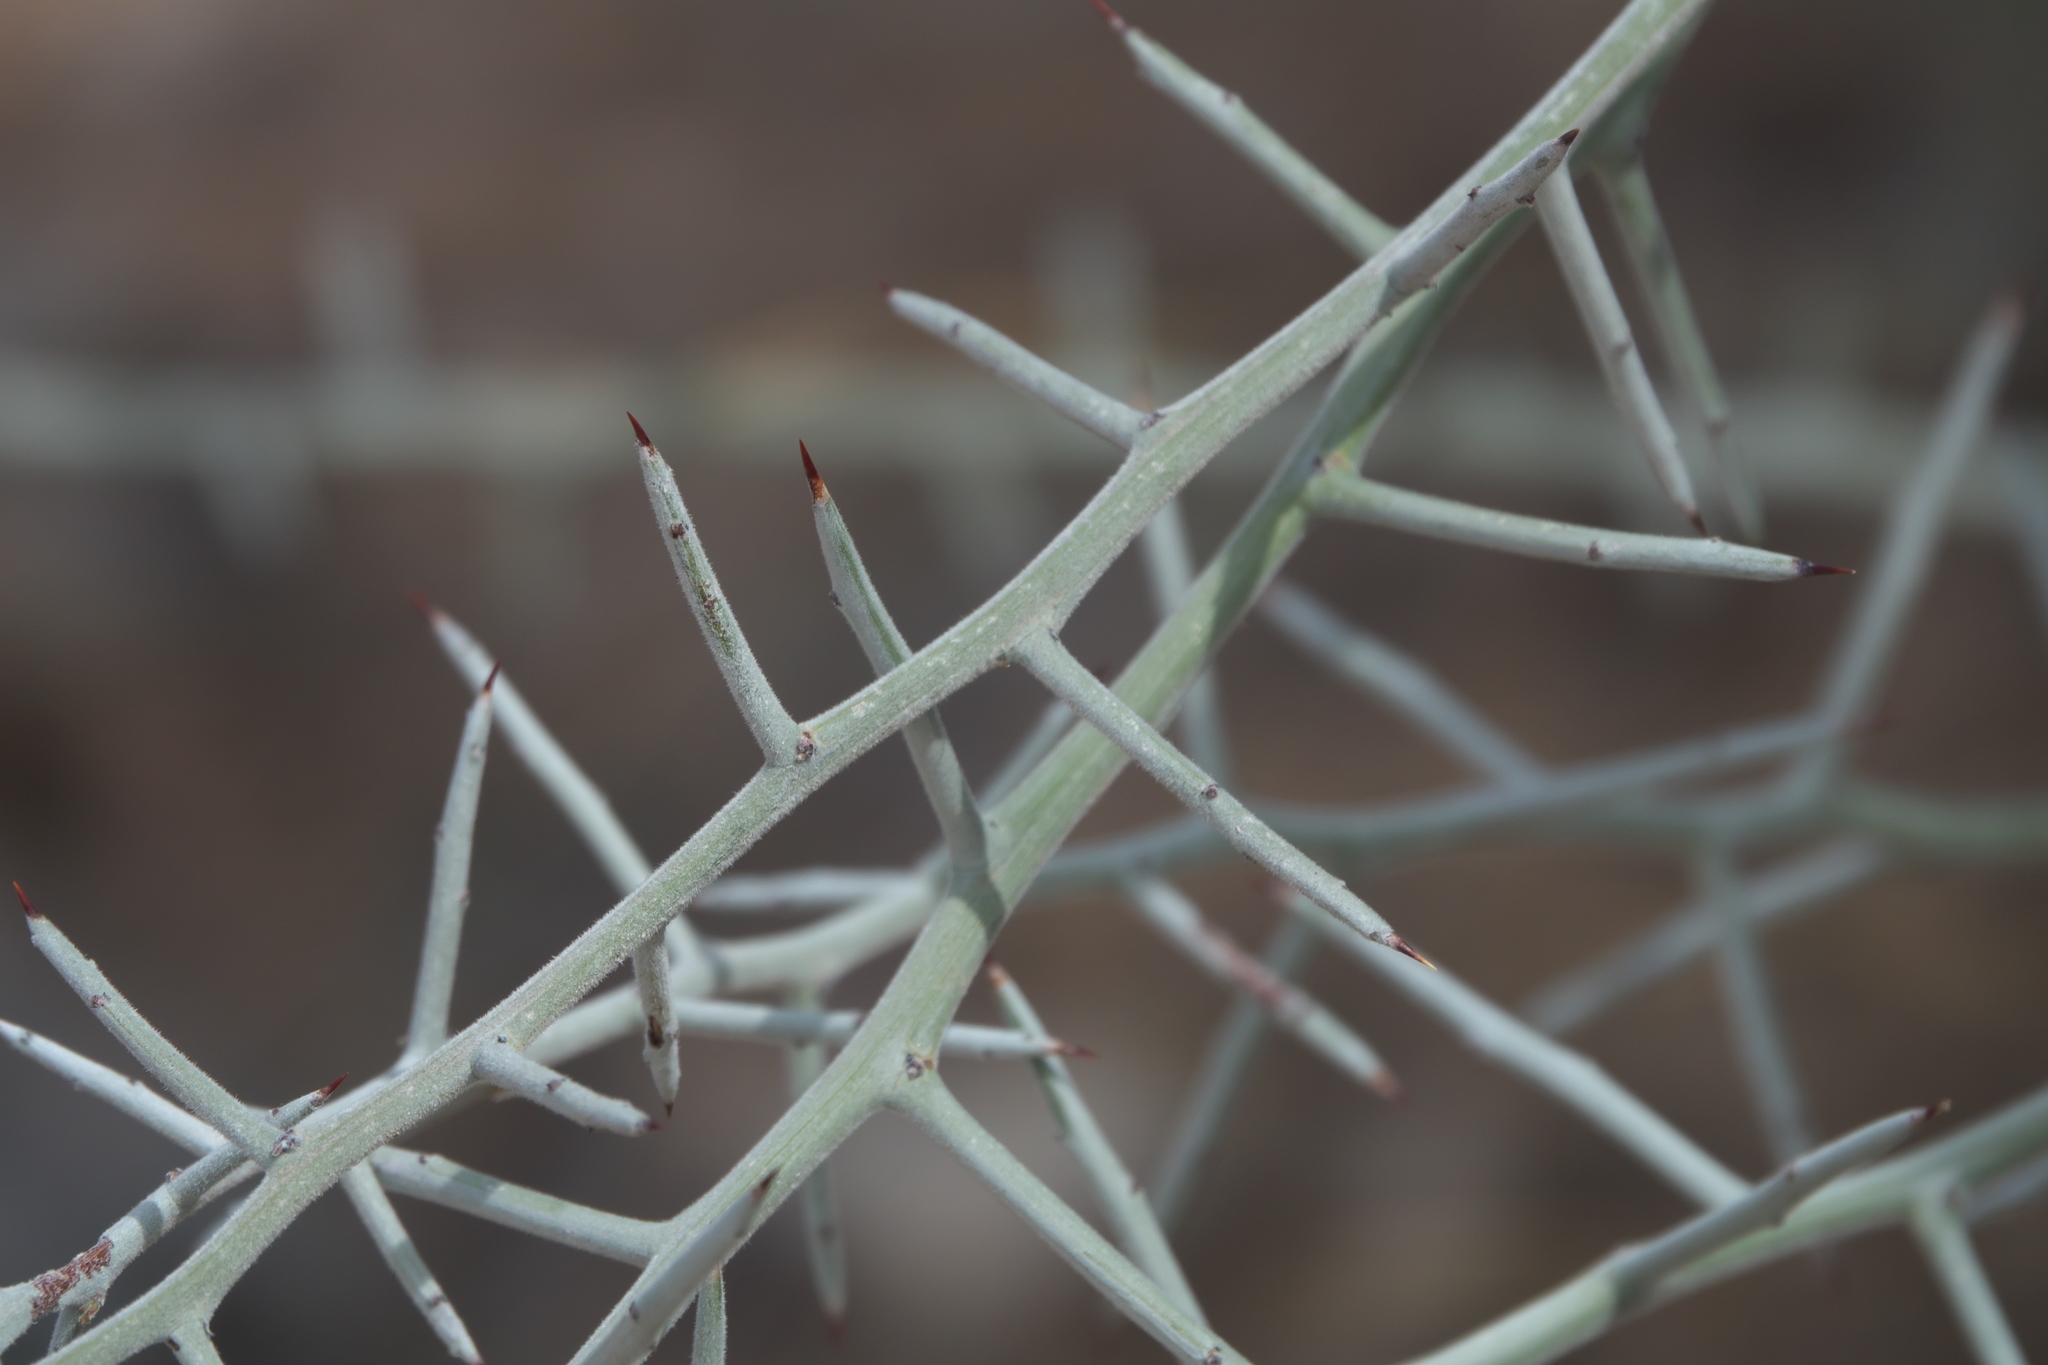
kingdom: Plantae
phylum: Tracheophyta
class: Magnoliopsida
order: Rosales
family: Rhamnaceae
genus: Sarcomphalus
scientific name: Sarcomphalus obtusifolius
